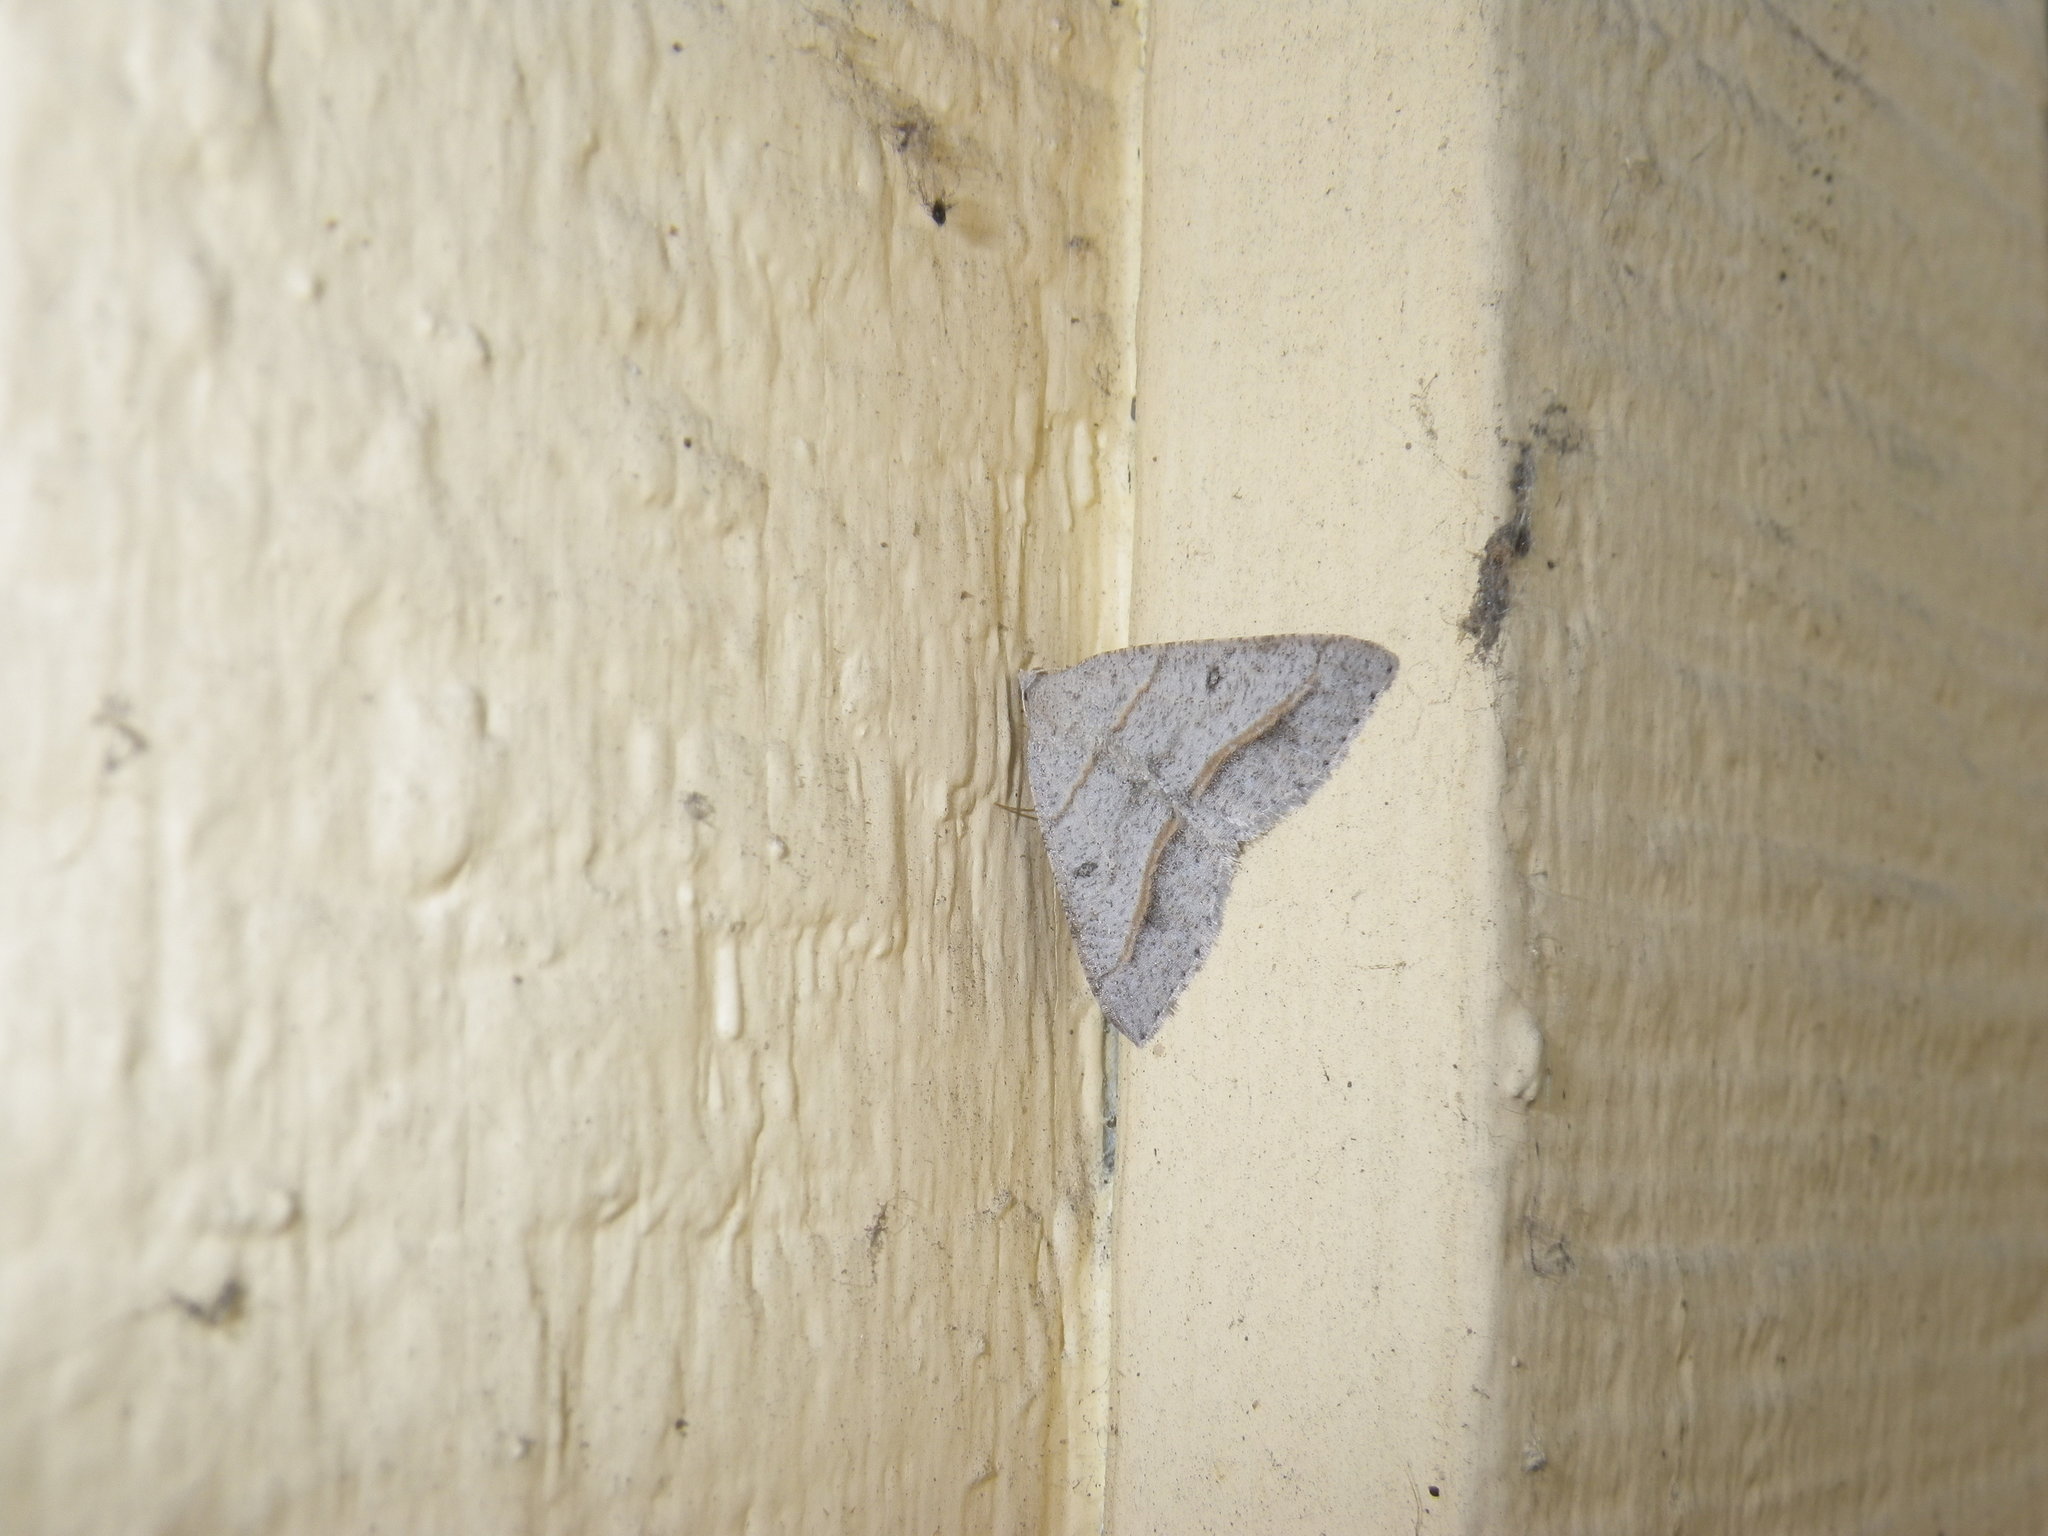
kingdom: Animalia
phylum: Arthropoda
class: Insecta
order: Lepidoptera
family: Geometridae
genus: Digrammia
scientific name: Digrammia neptaria
